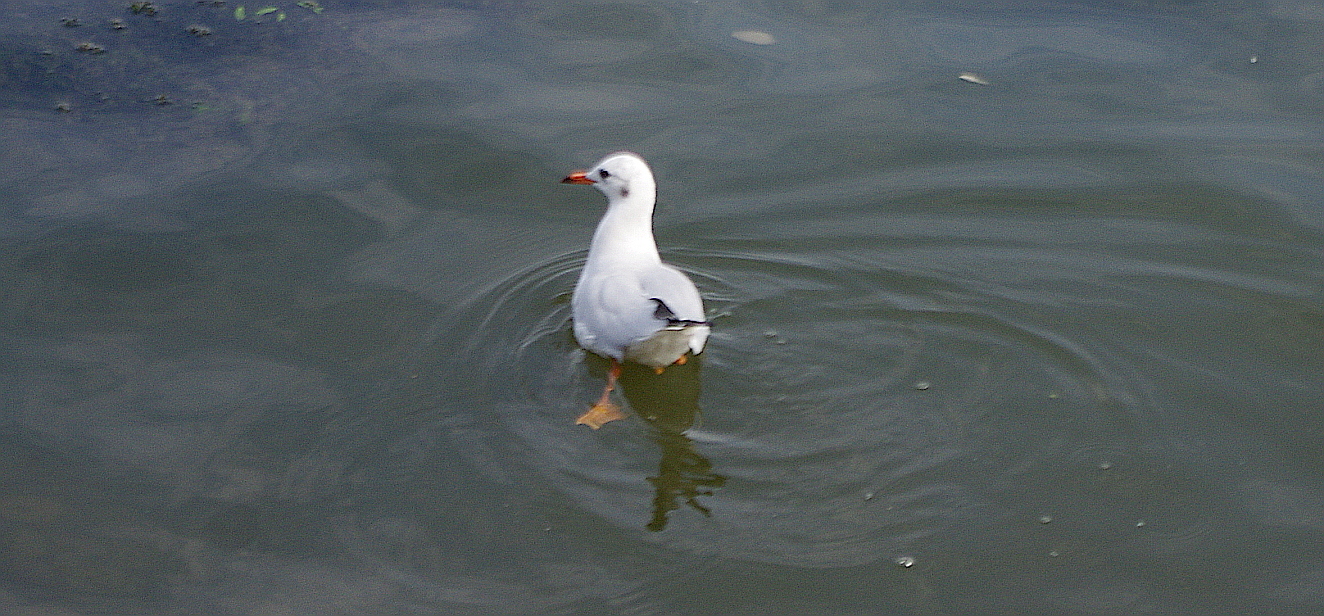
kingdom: Animalia
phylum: Chordata
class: Aves
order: Charadriiformes
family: Laridae
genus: Chroicocephalus
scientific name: Chroicocephalus ridibundus
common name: Black-headed gull
